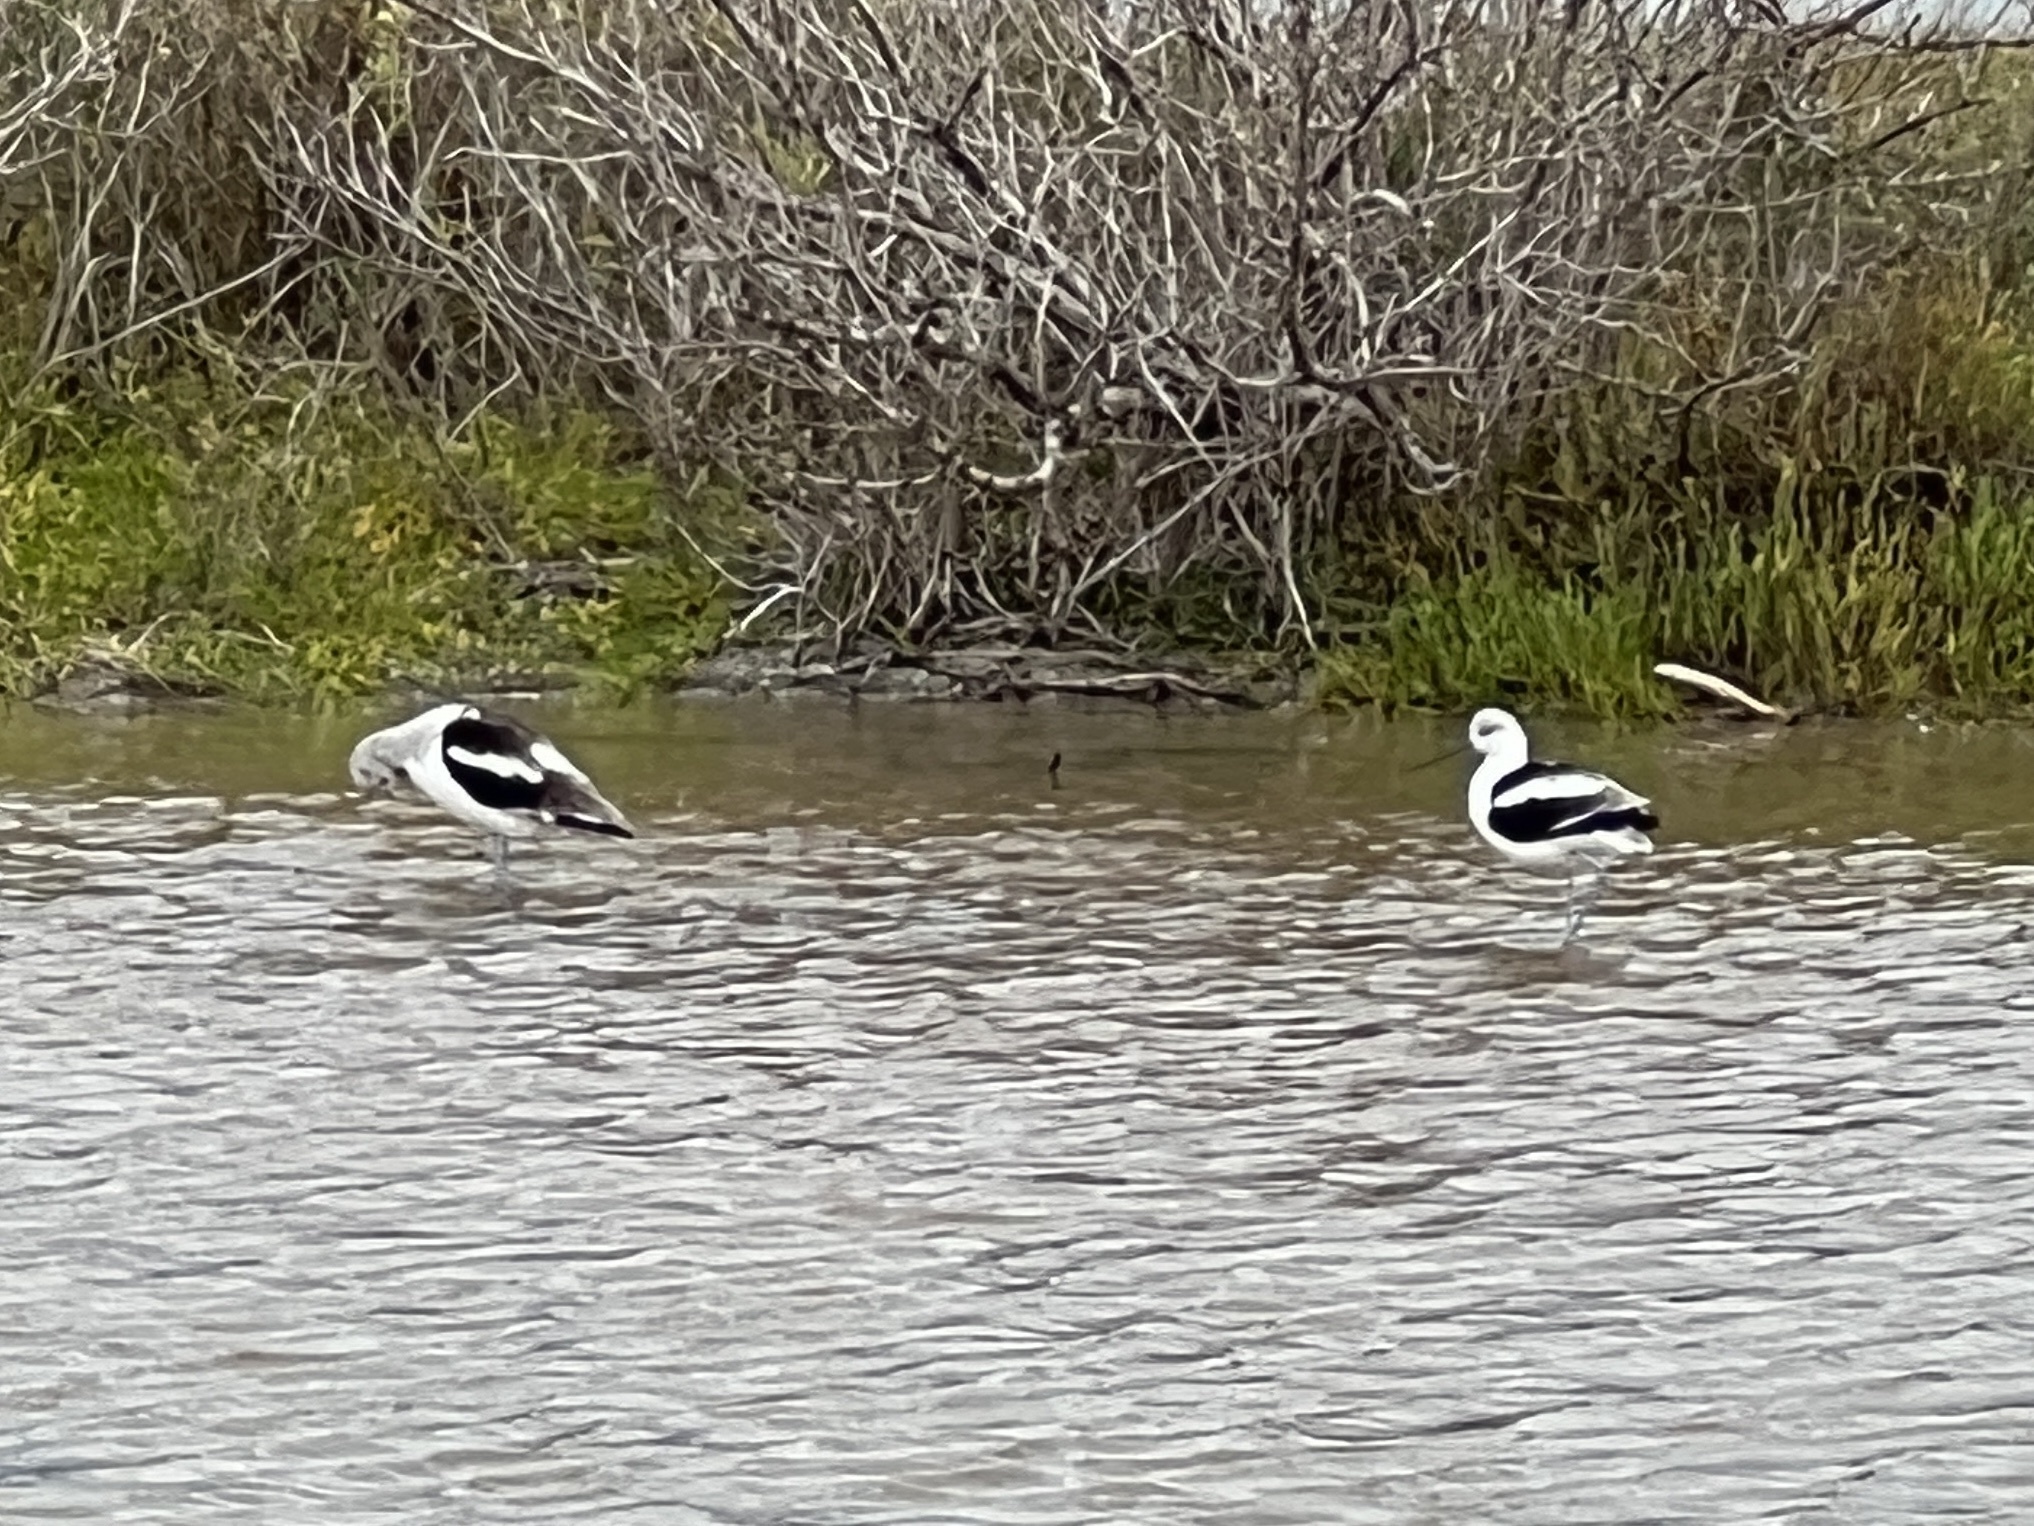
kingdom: Animalia
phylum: Chordata
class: Aves
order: Charadriiformes
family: Recurvirostridae
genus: Recurvirostra
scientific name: Recurvirostra americana
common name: American avocet
